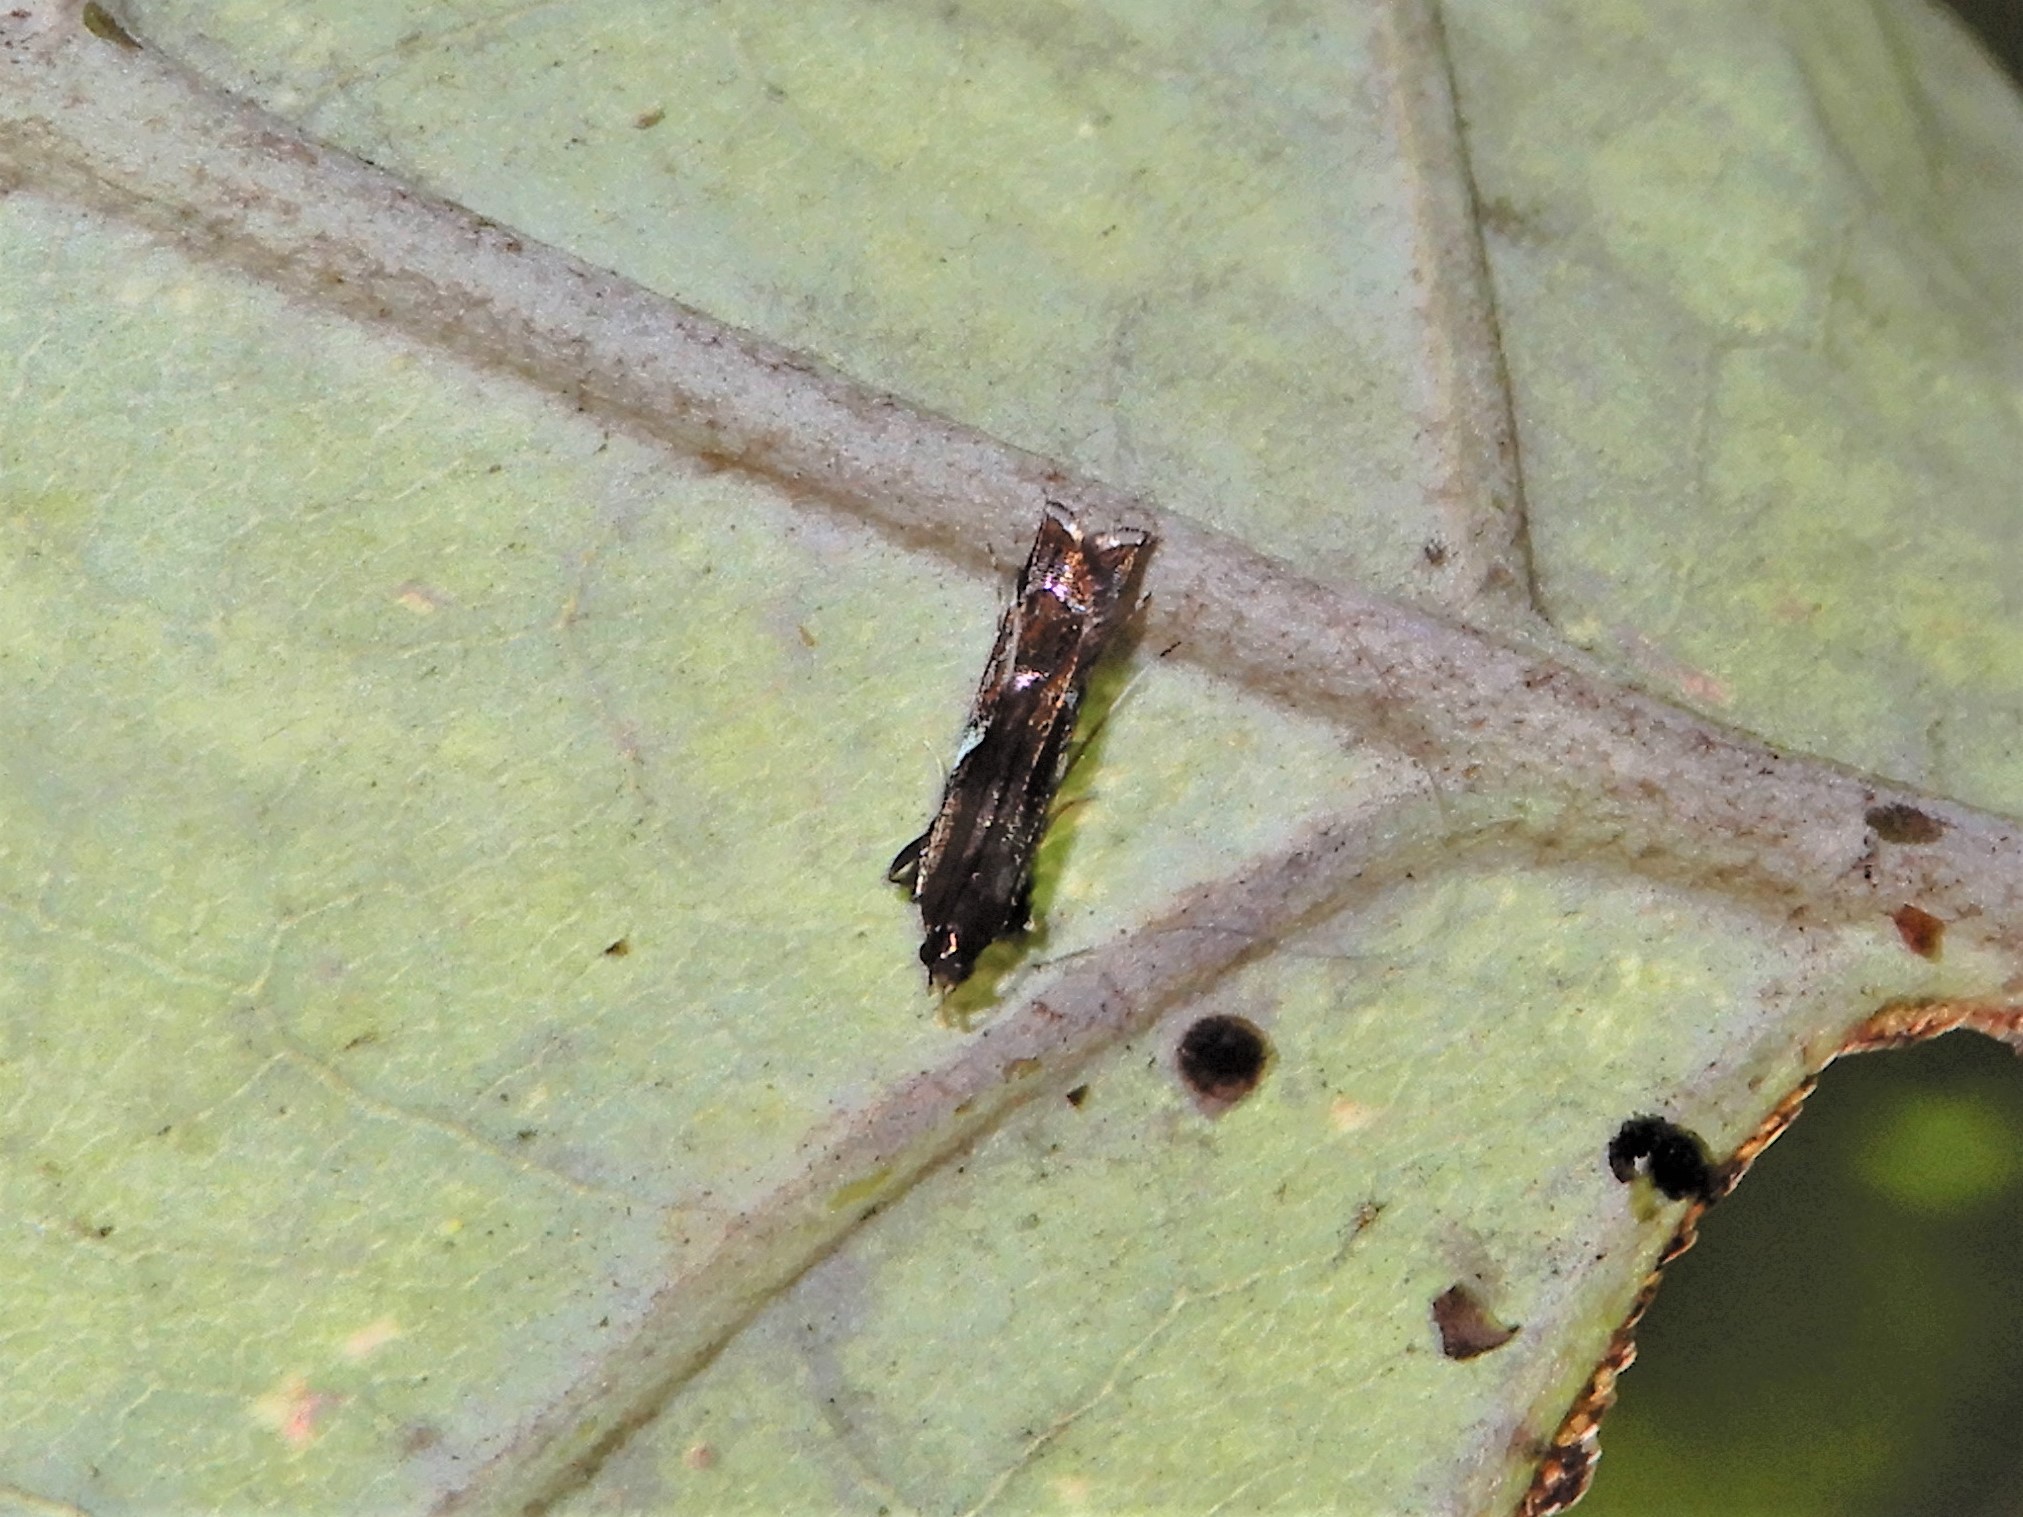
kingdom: Animalia
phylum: Arthropoda
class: Insecta
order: Lepidoptera
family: Depressariidae
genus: Compsistis
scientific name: Compsistis bifaciella
